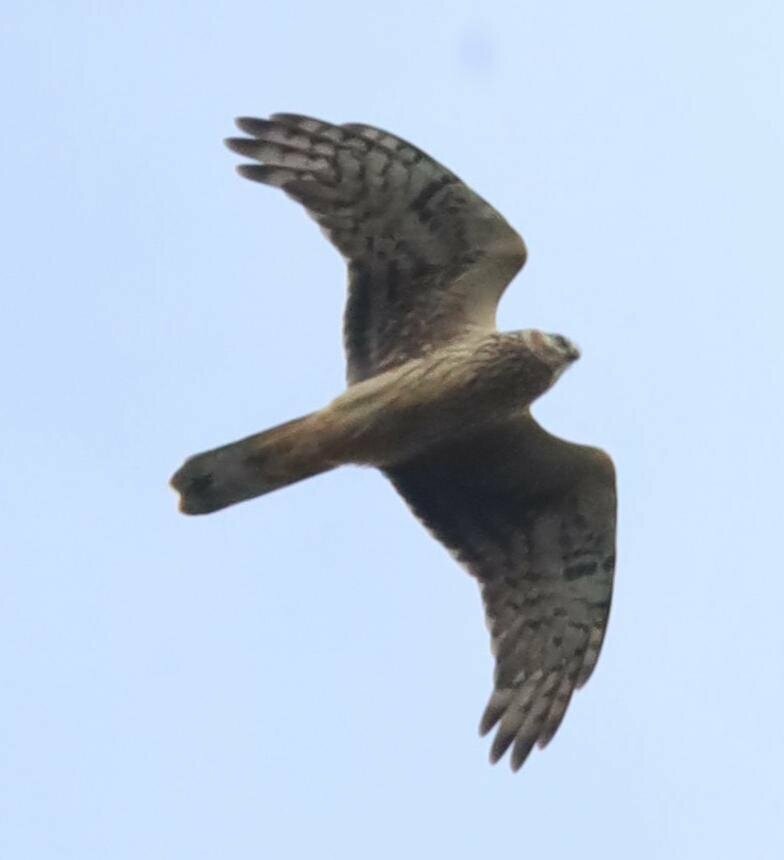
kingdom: Animalia
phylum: Chordata
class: Aves
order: Accipitriformes
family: Accipitridae
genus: Circus
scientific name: Circus cyaneus
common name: Hen harrier
